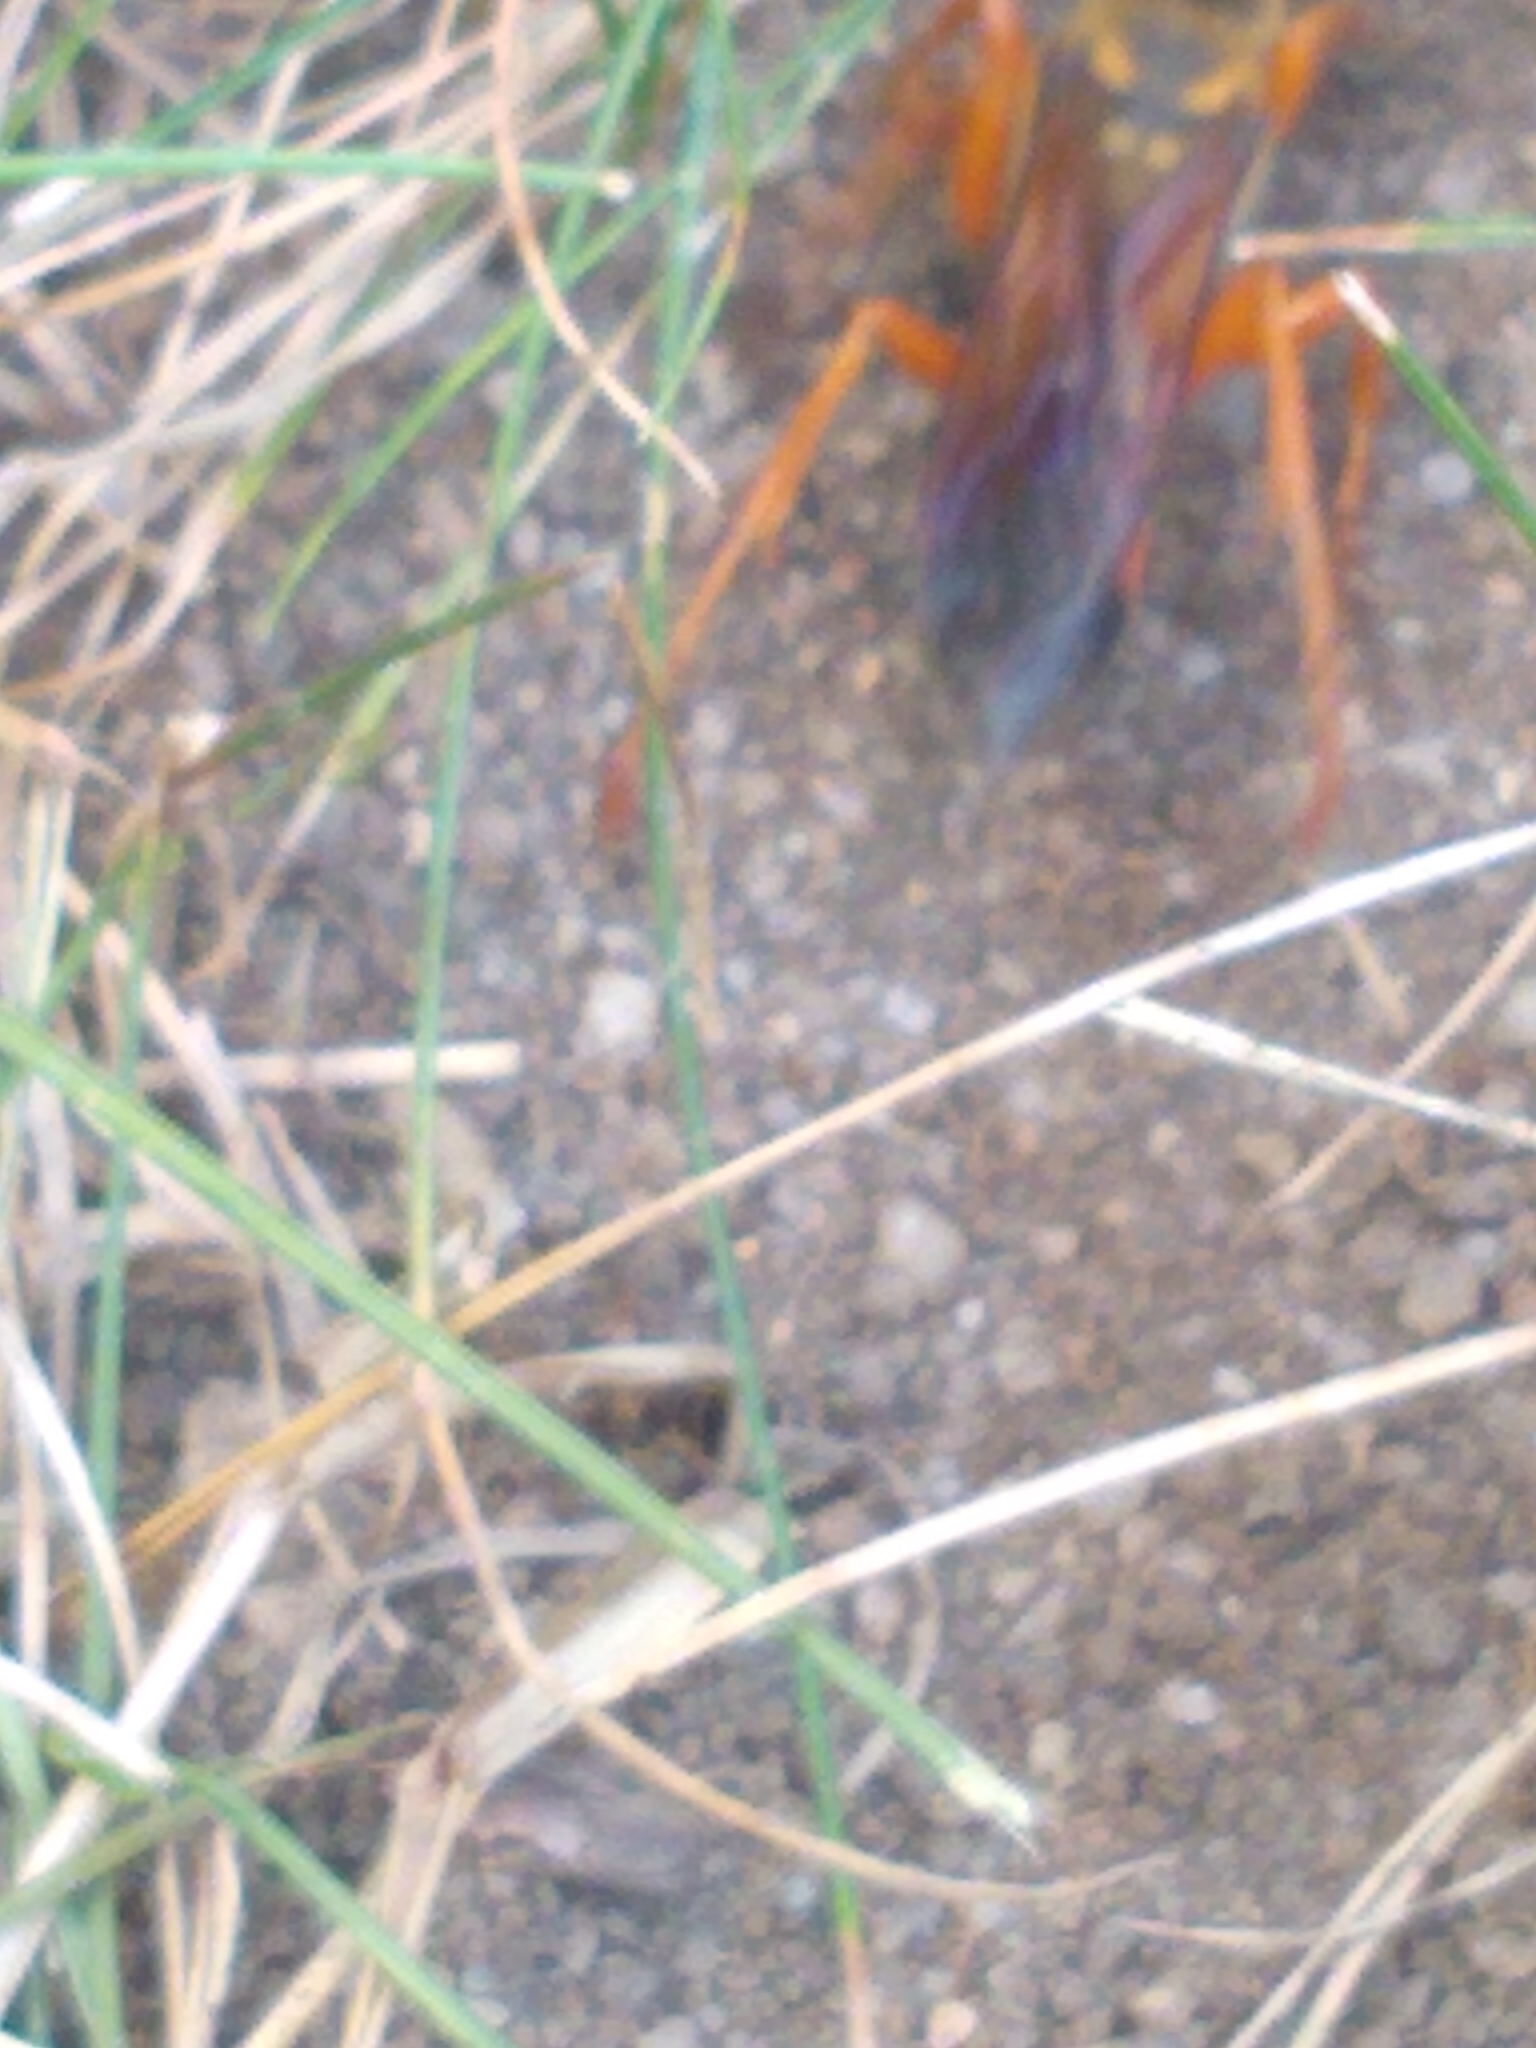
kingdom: Animalia
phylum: Arthropoda
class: Insecta
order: Hymenoptera
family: Sphecidae
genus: Sphex
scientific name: Sphex ichneumoneus
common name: Great golden digger wasp
